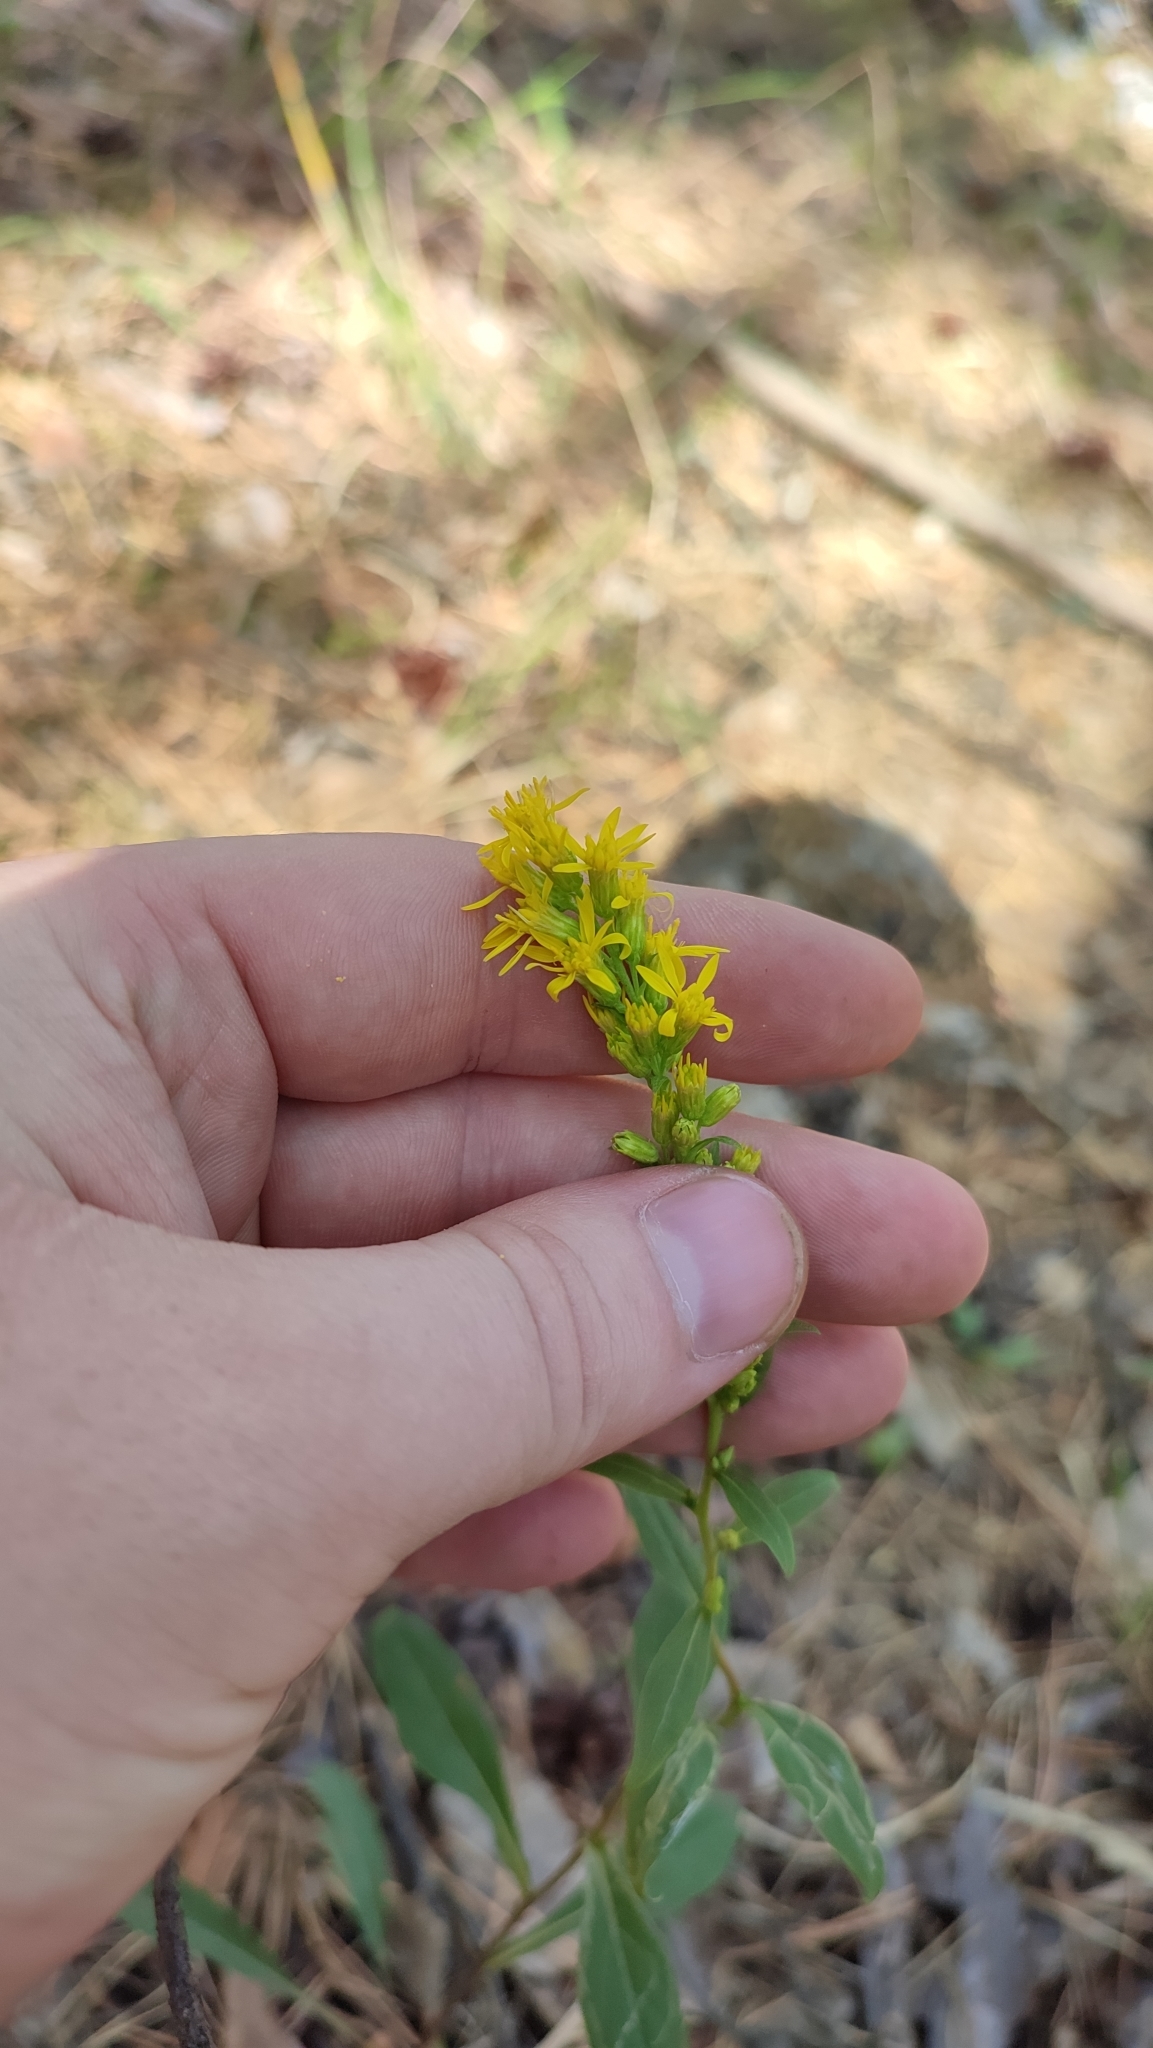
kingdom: Plantae
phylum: Tracheophyta
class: Magnoliopsida
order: Asterales
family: Asteraceae
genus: Solidago
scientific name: Solidago virgaurea
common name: Goldenrod
